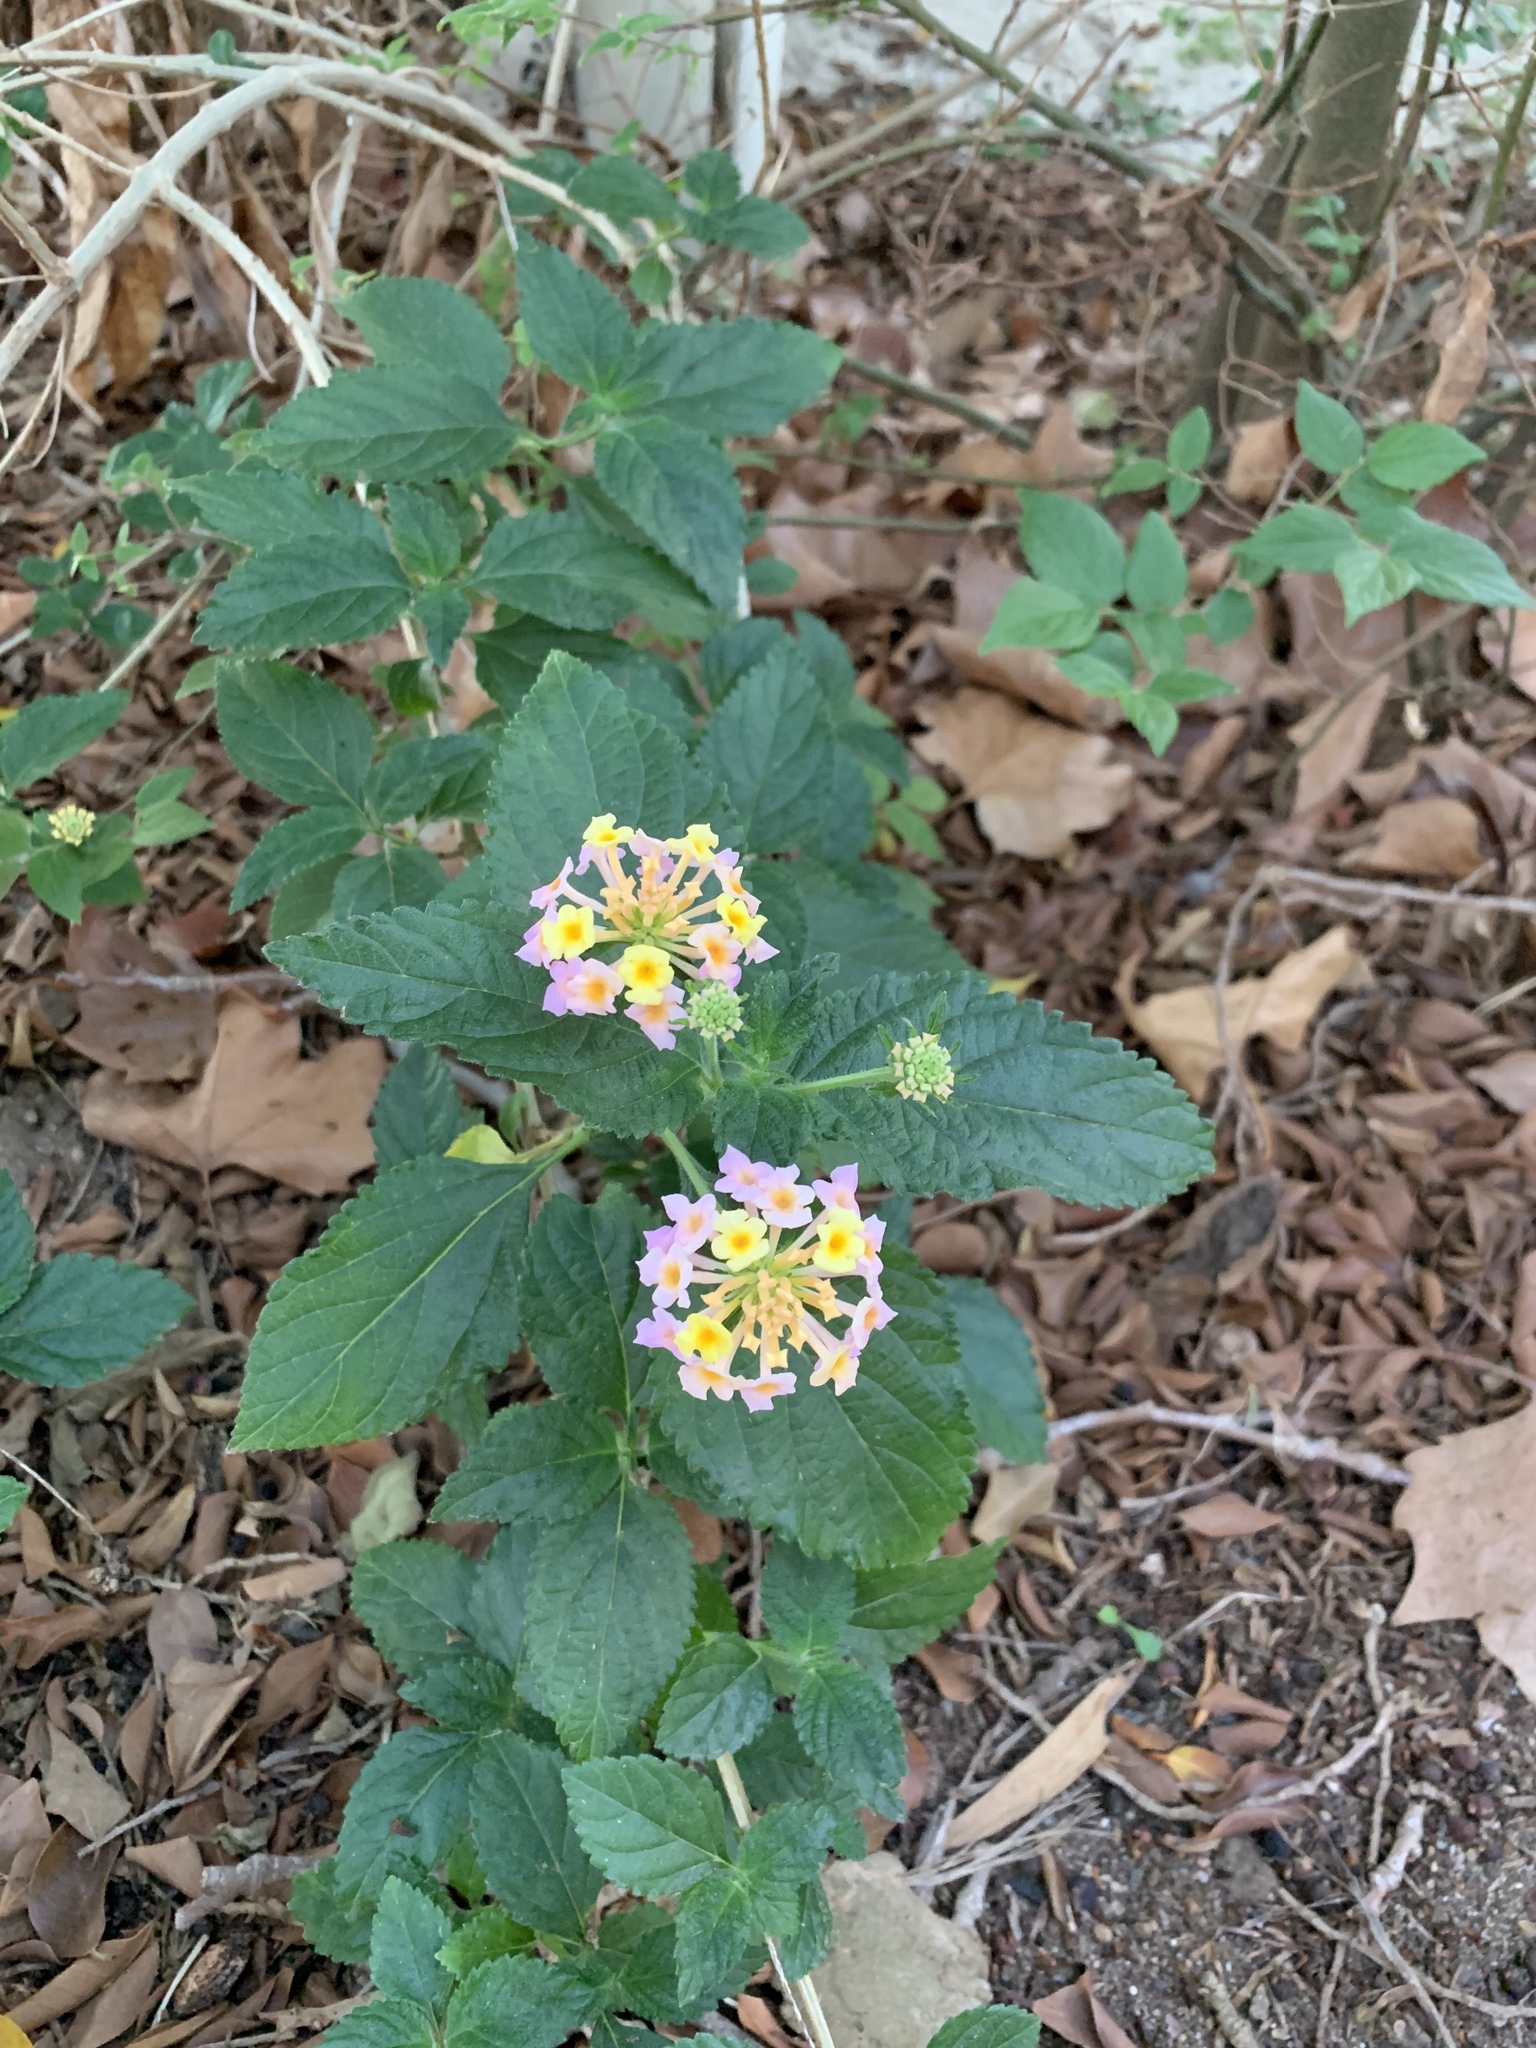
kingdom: Plantae
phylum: Tracheophyta
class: Magnoliopsida
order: Lamiales
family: Verbenaceae
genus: Lantana
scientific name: Lantana camara
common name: Lantana
